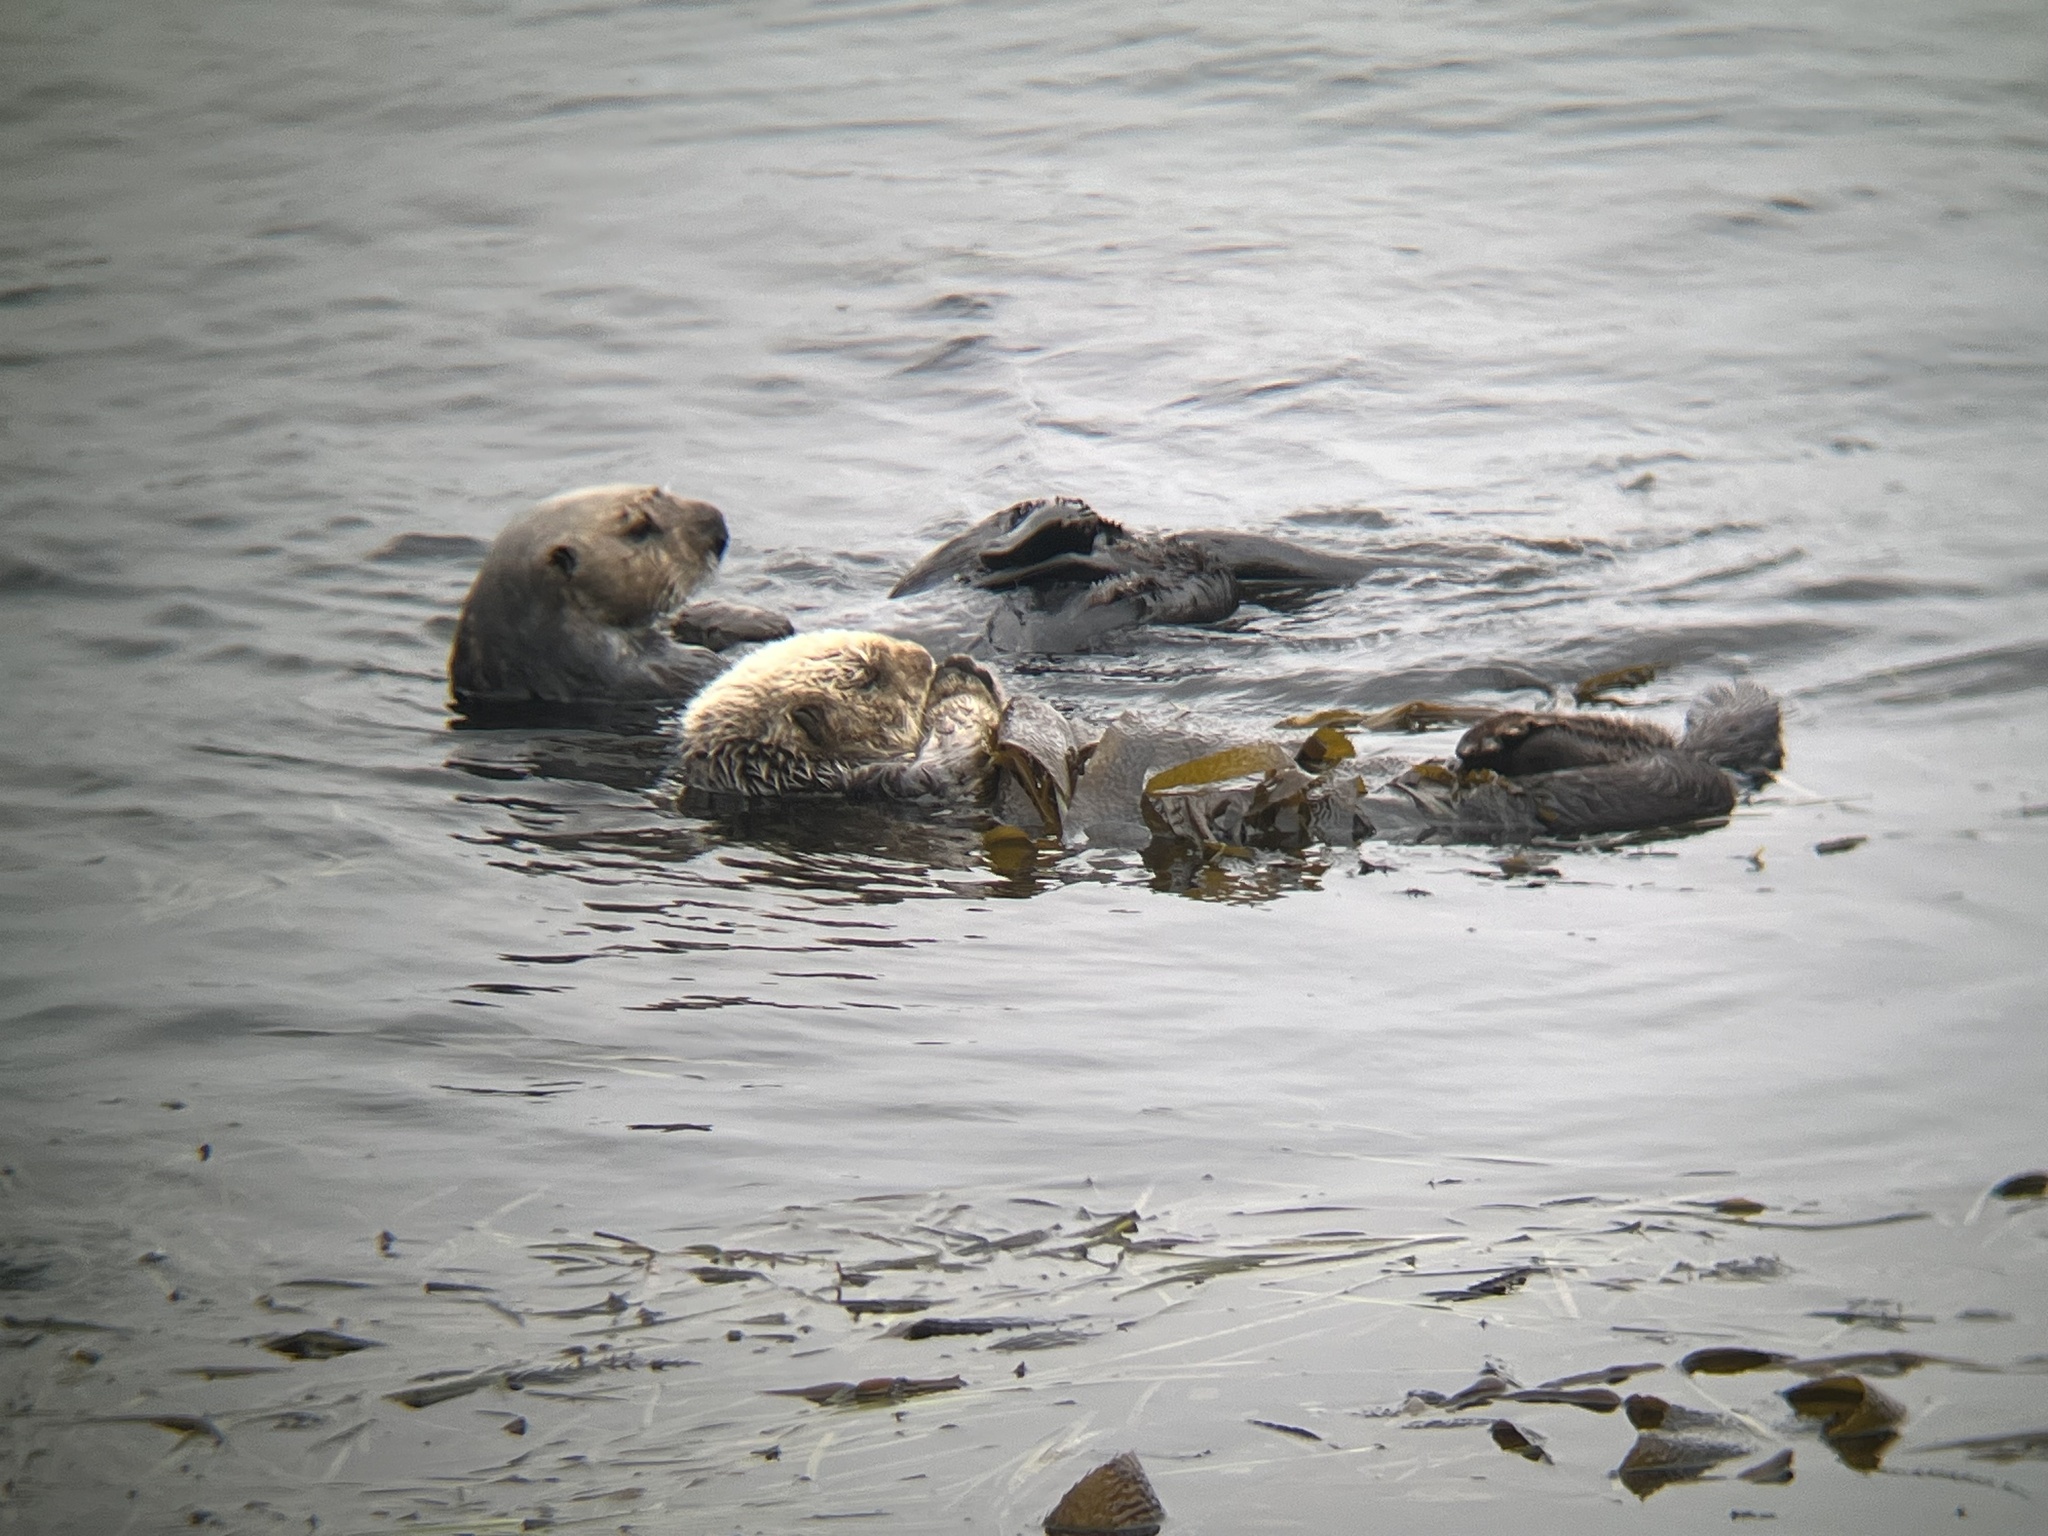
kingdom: Animalia
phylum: Chordata
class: Mammalia
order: Carnivora
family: Mustelidae
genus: Enhydra
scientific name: Enhydra lutris
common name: Sea otter
